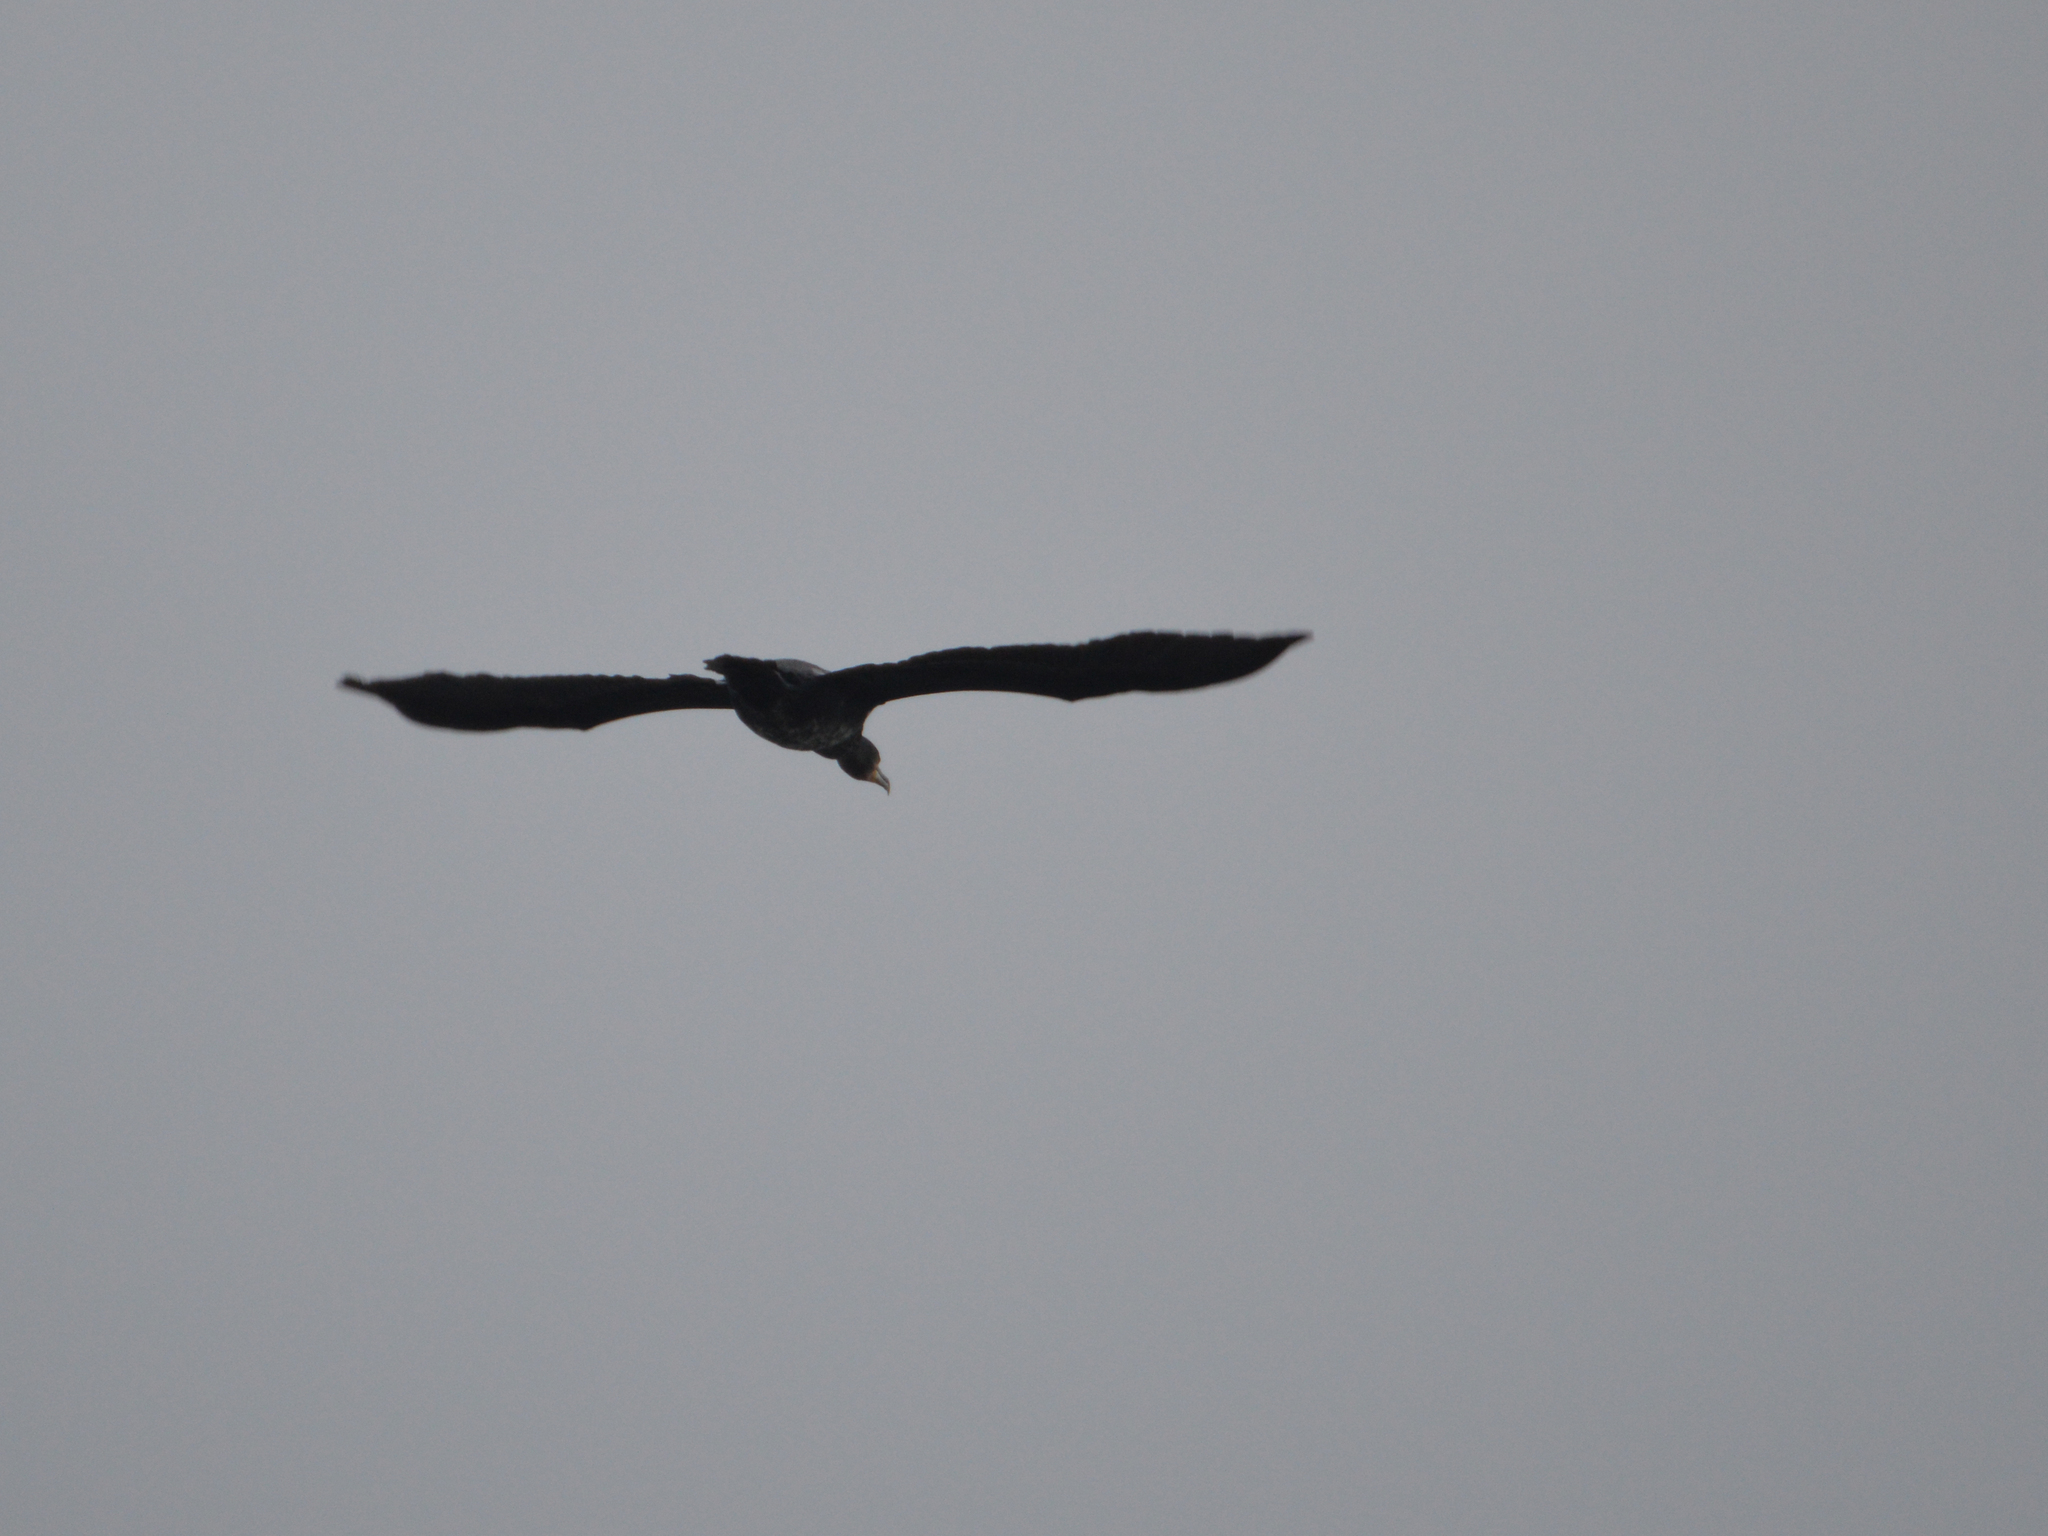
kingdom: Animalia
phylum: Chordata
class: Aves
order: Suliformes
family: Phalacrocoracidae
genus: Phalacrocorax
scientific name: Phalacrocorax carbo
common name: Great cormorant
